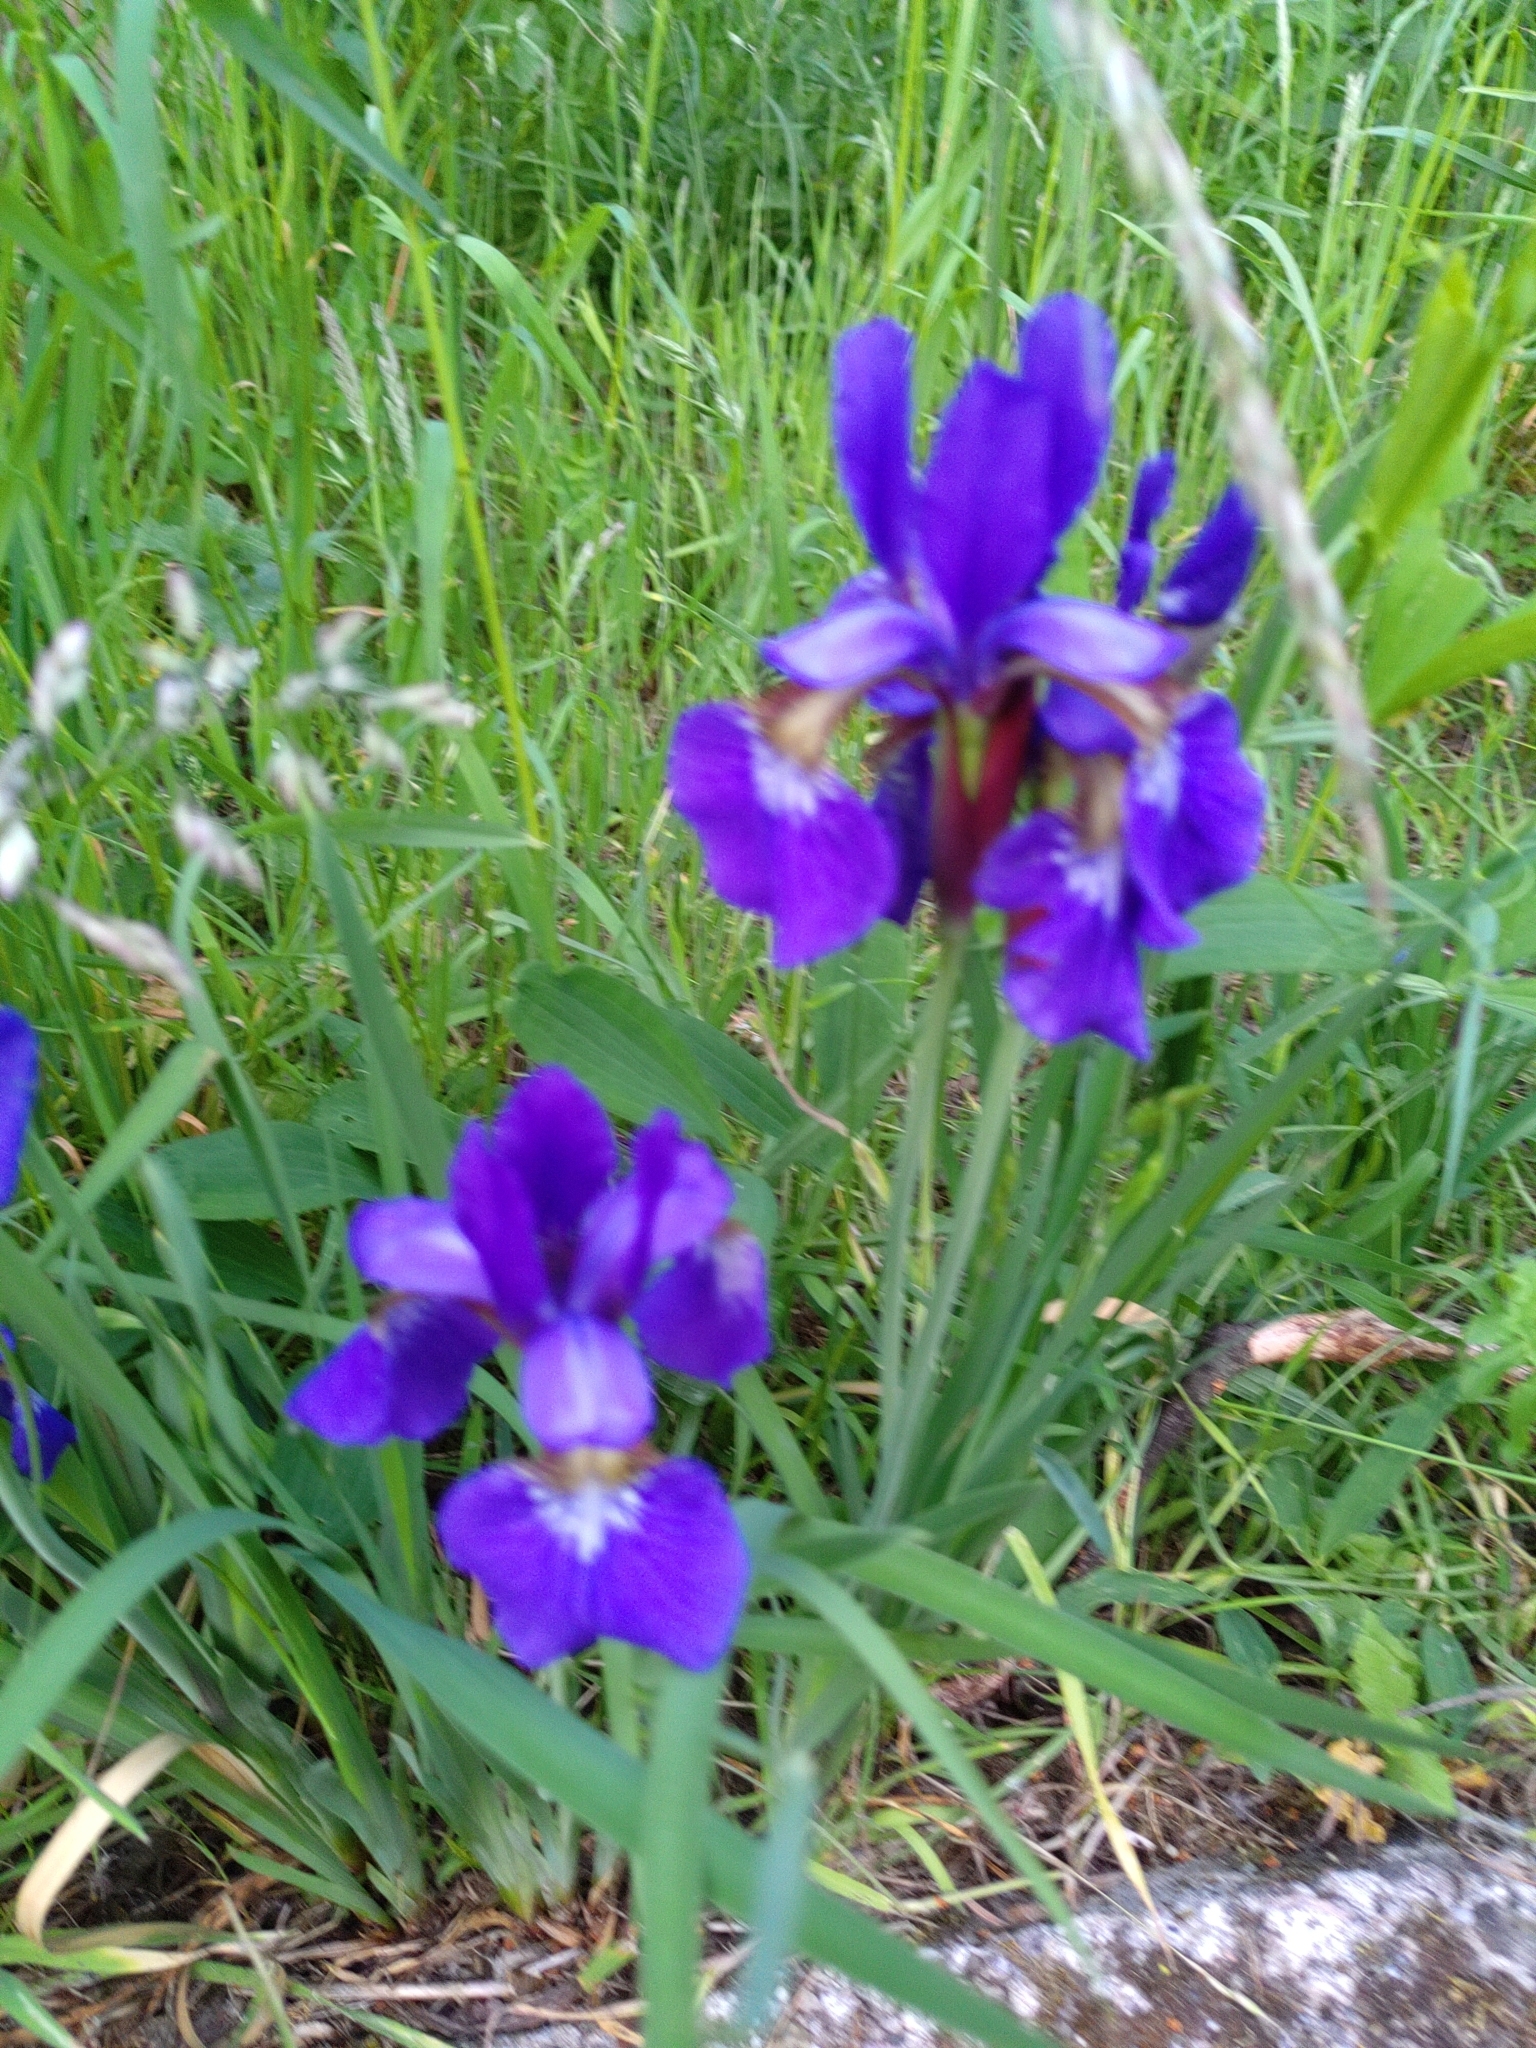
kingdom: Plantae
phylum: Tracheophyta
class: Liliopsida
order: Asparagales
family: Iridaceae
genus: Iris
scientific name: Iris sanguinea
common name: Blood iris
